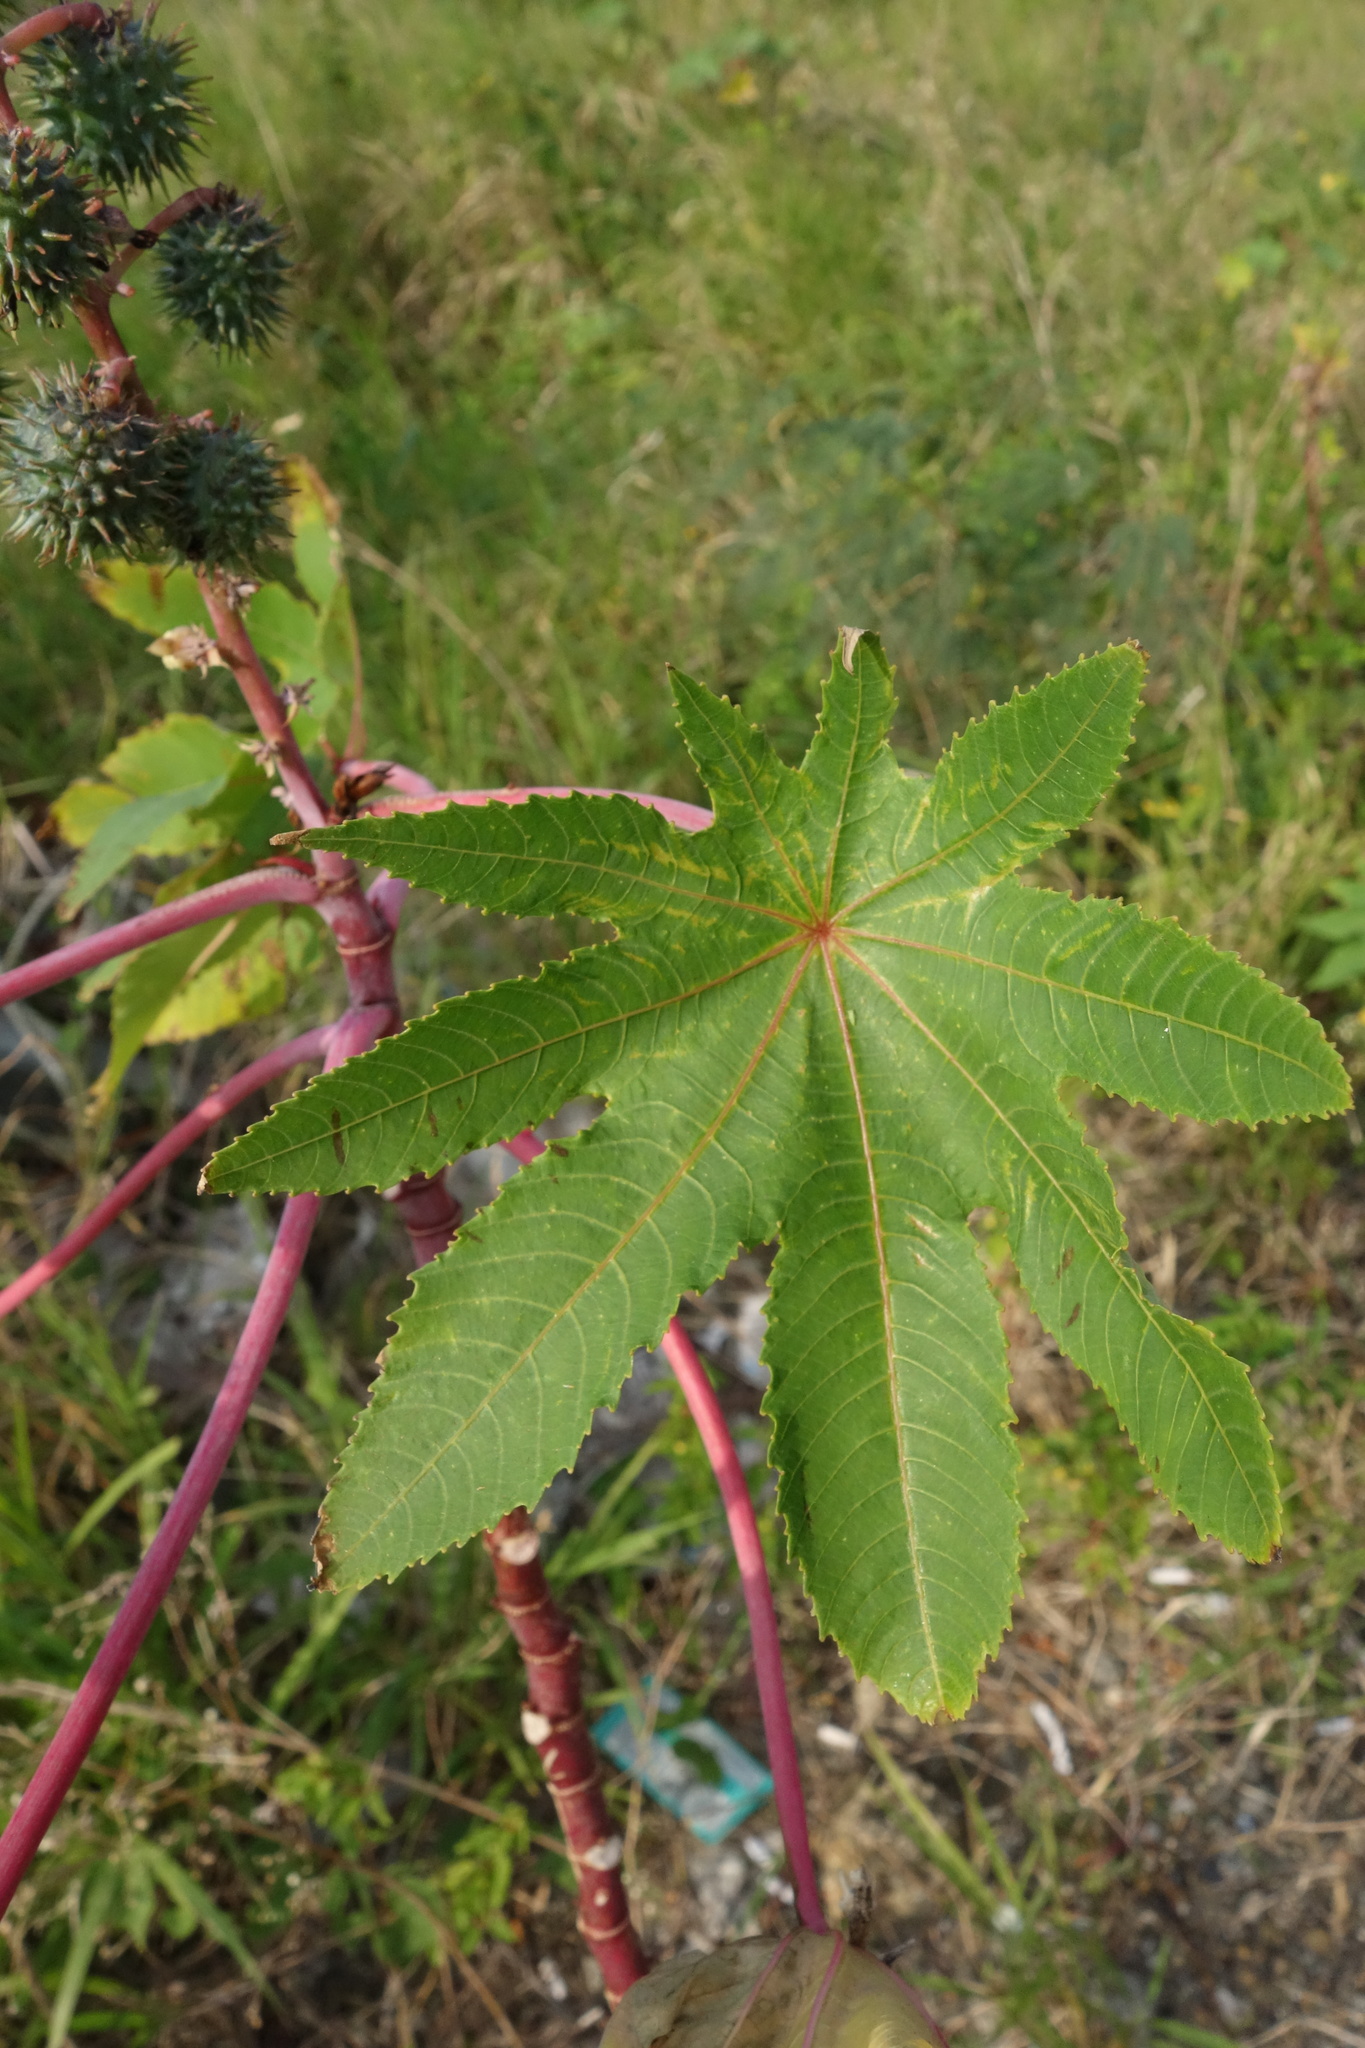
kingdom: Plantae
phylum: Tracheophyta
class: Magnoliopsida
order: Malpighiales
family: Euphorbiaceae
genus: Ricinus
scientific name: Ricinus communis
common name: Castor-oil-plant
